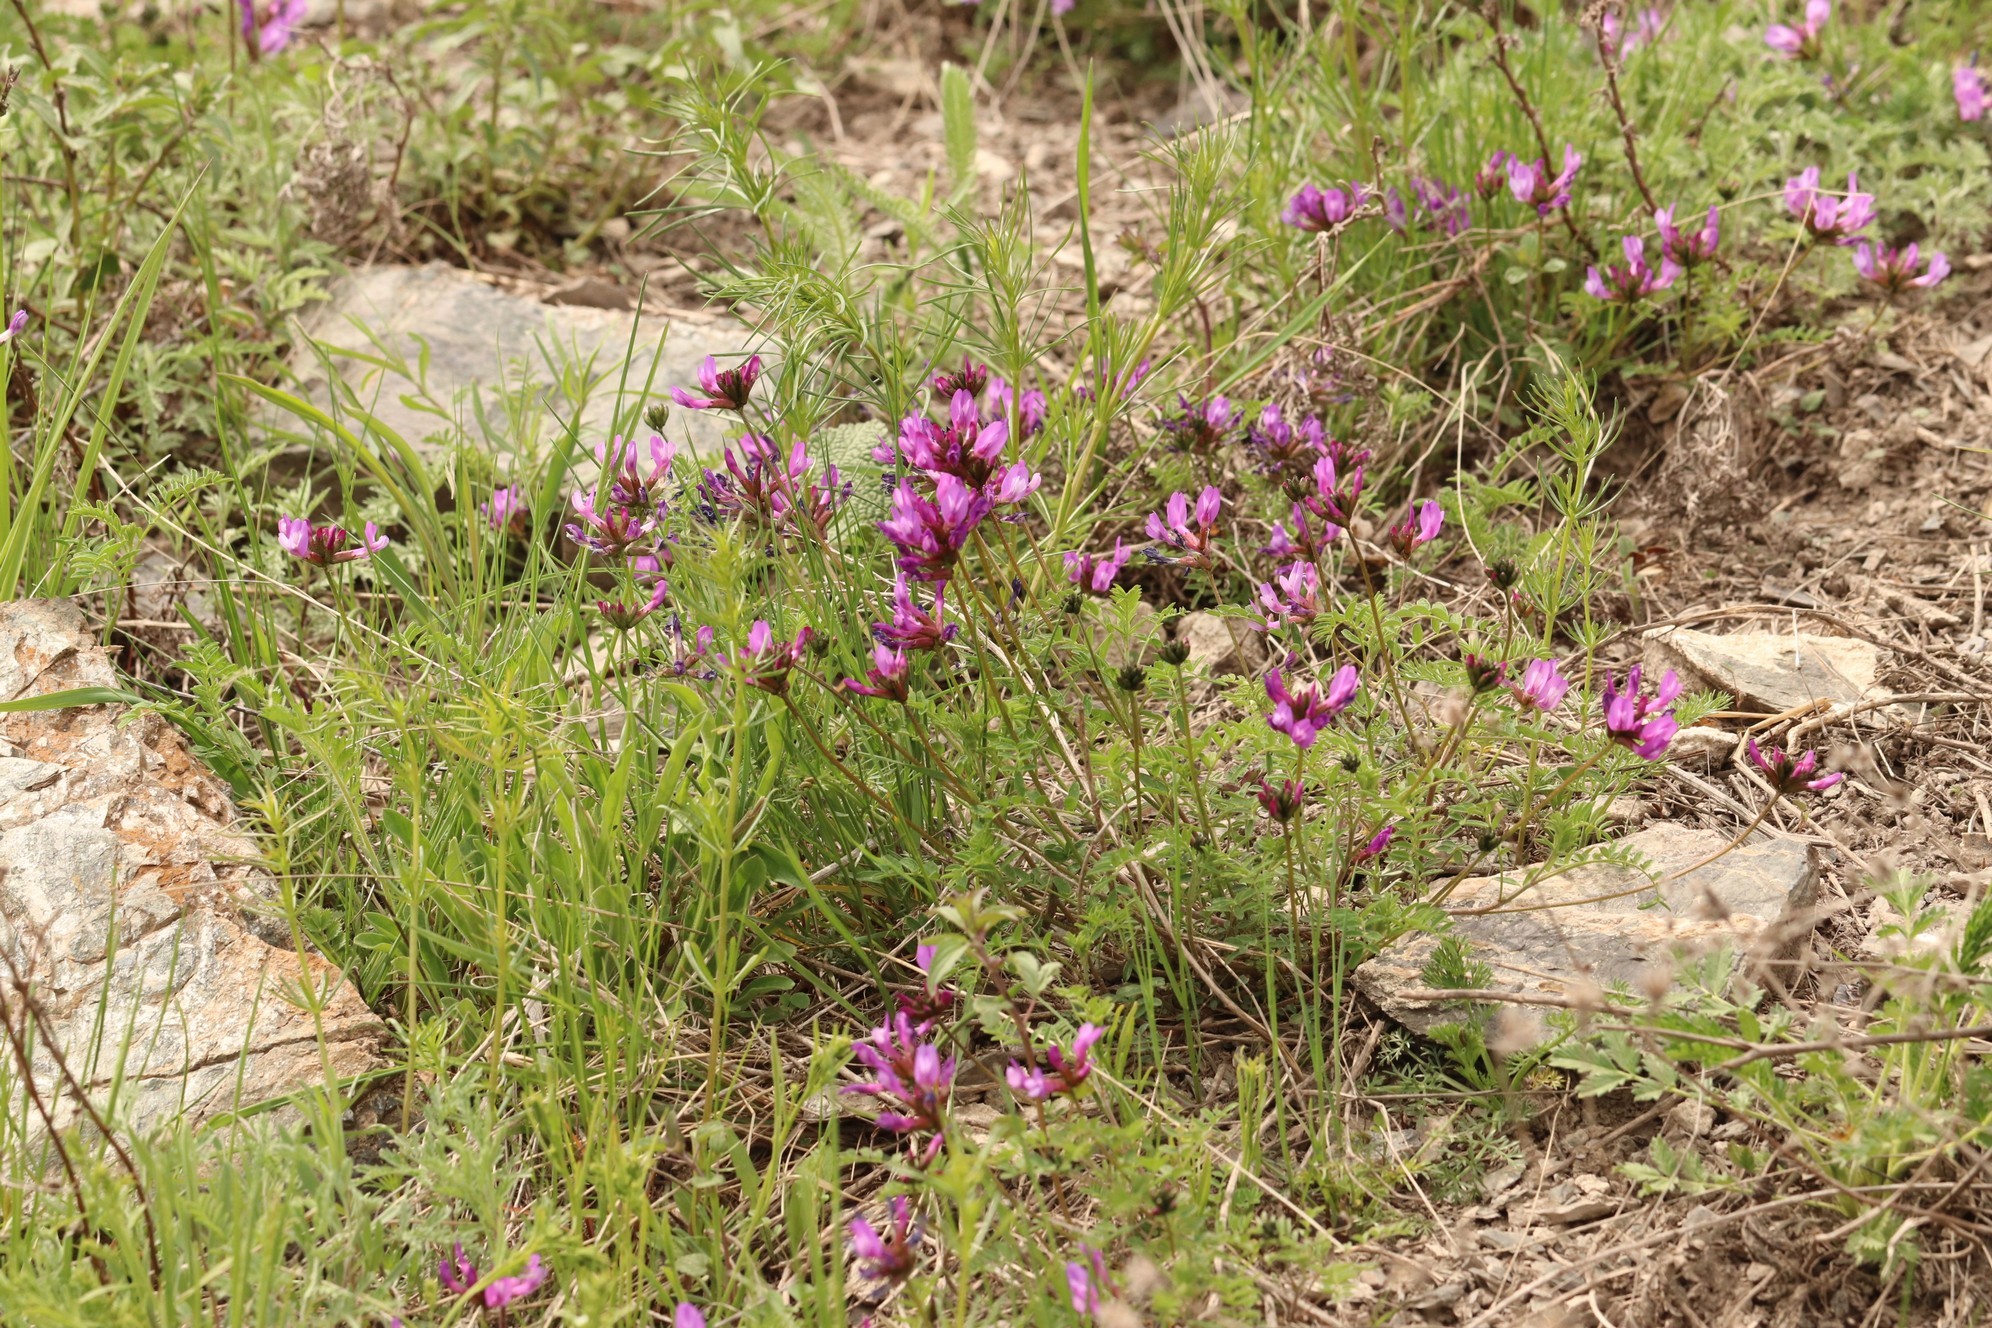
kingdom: Plantae
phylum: Tracheophyta
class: Magnoliopsida
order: Fabales
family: Fabaceae
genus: Astragalus
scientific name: Astragalus ceratoides
